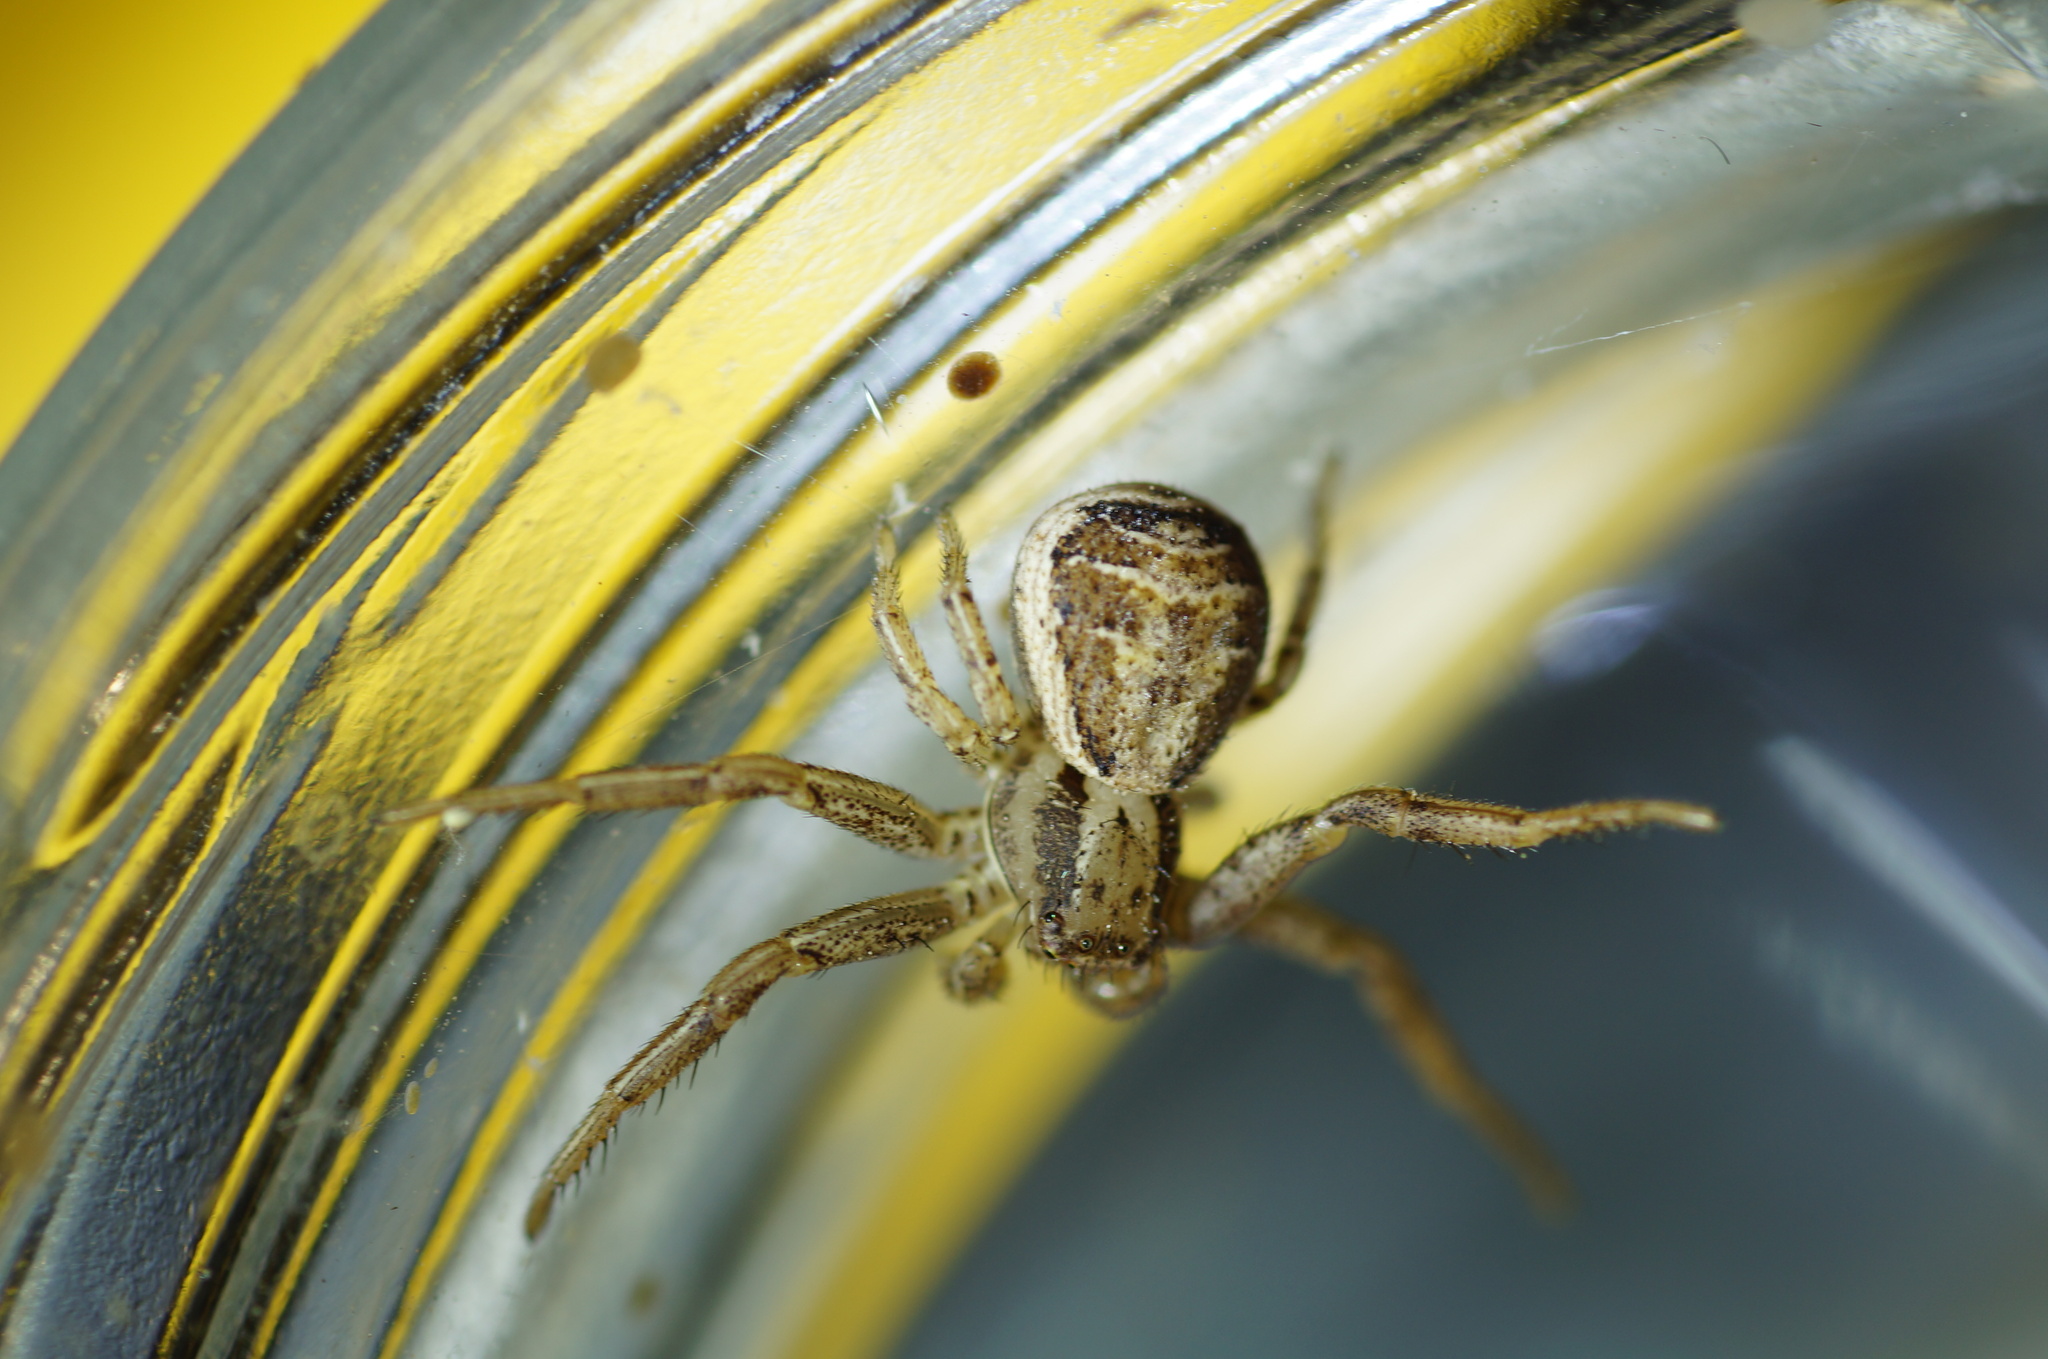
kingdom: Animalia
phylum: Arthropoda
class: Arachnida
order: Araneae
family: Thomisidae
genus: Xysticus
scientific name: Xysticus bifasciatus
